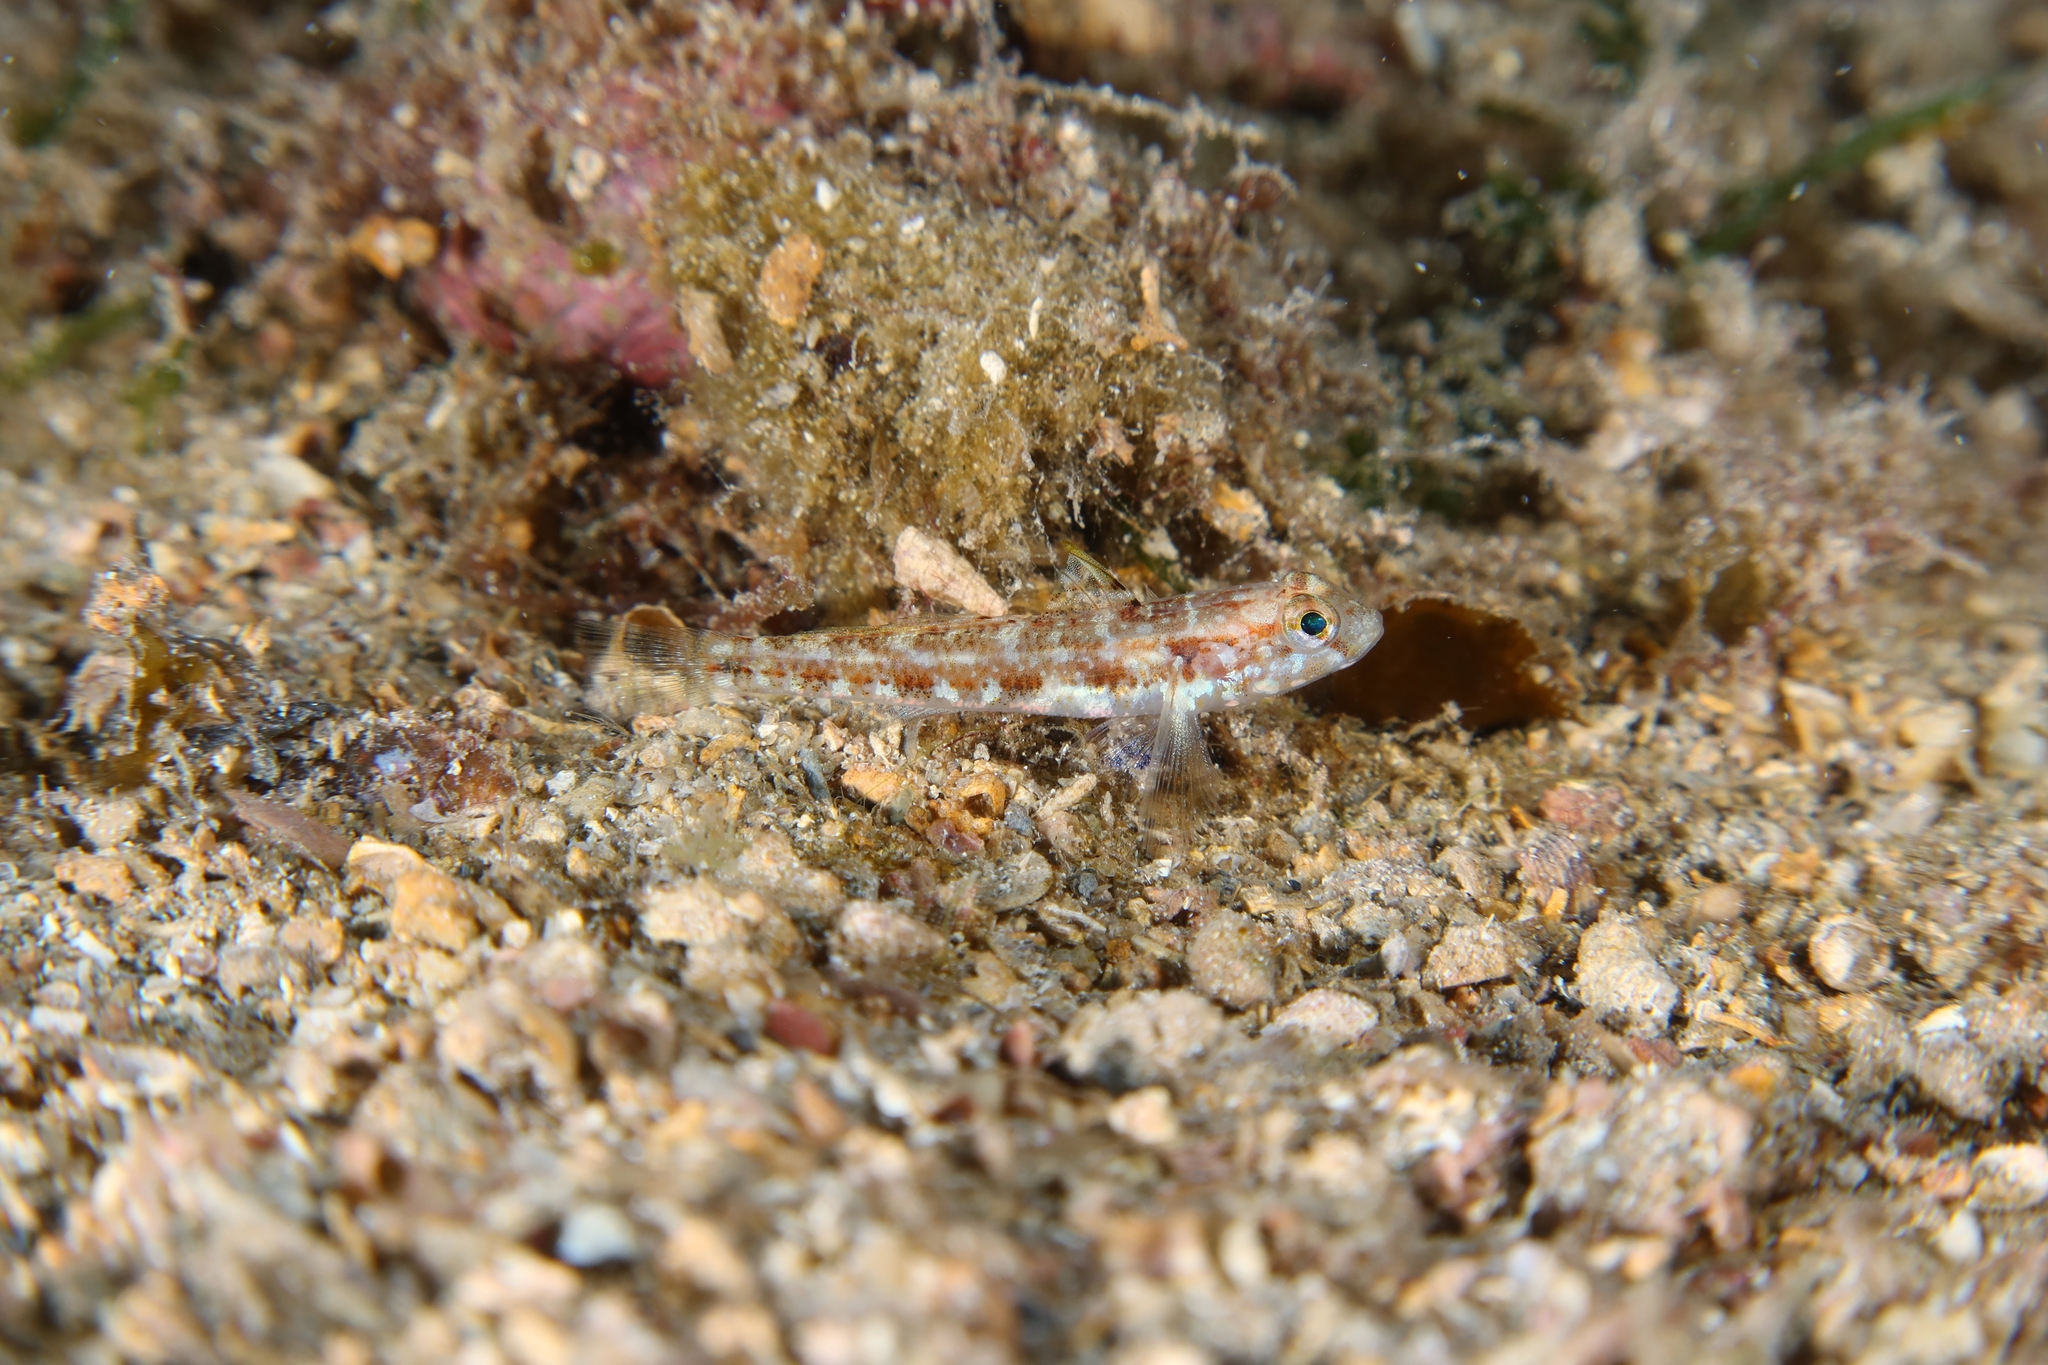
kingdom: Animalia
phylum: Chordata
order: Perciformes
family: Gobiidae
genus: Gobius
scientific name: Gobius roulei
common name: Roule's goby
